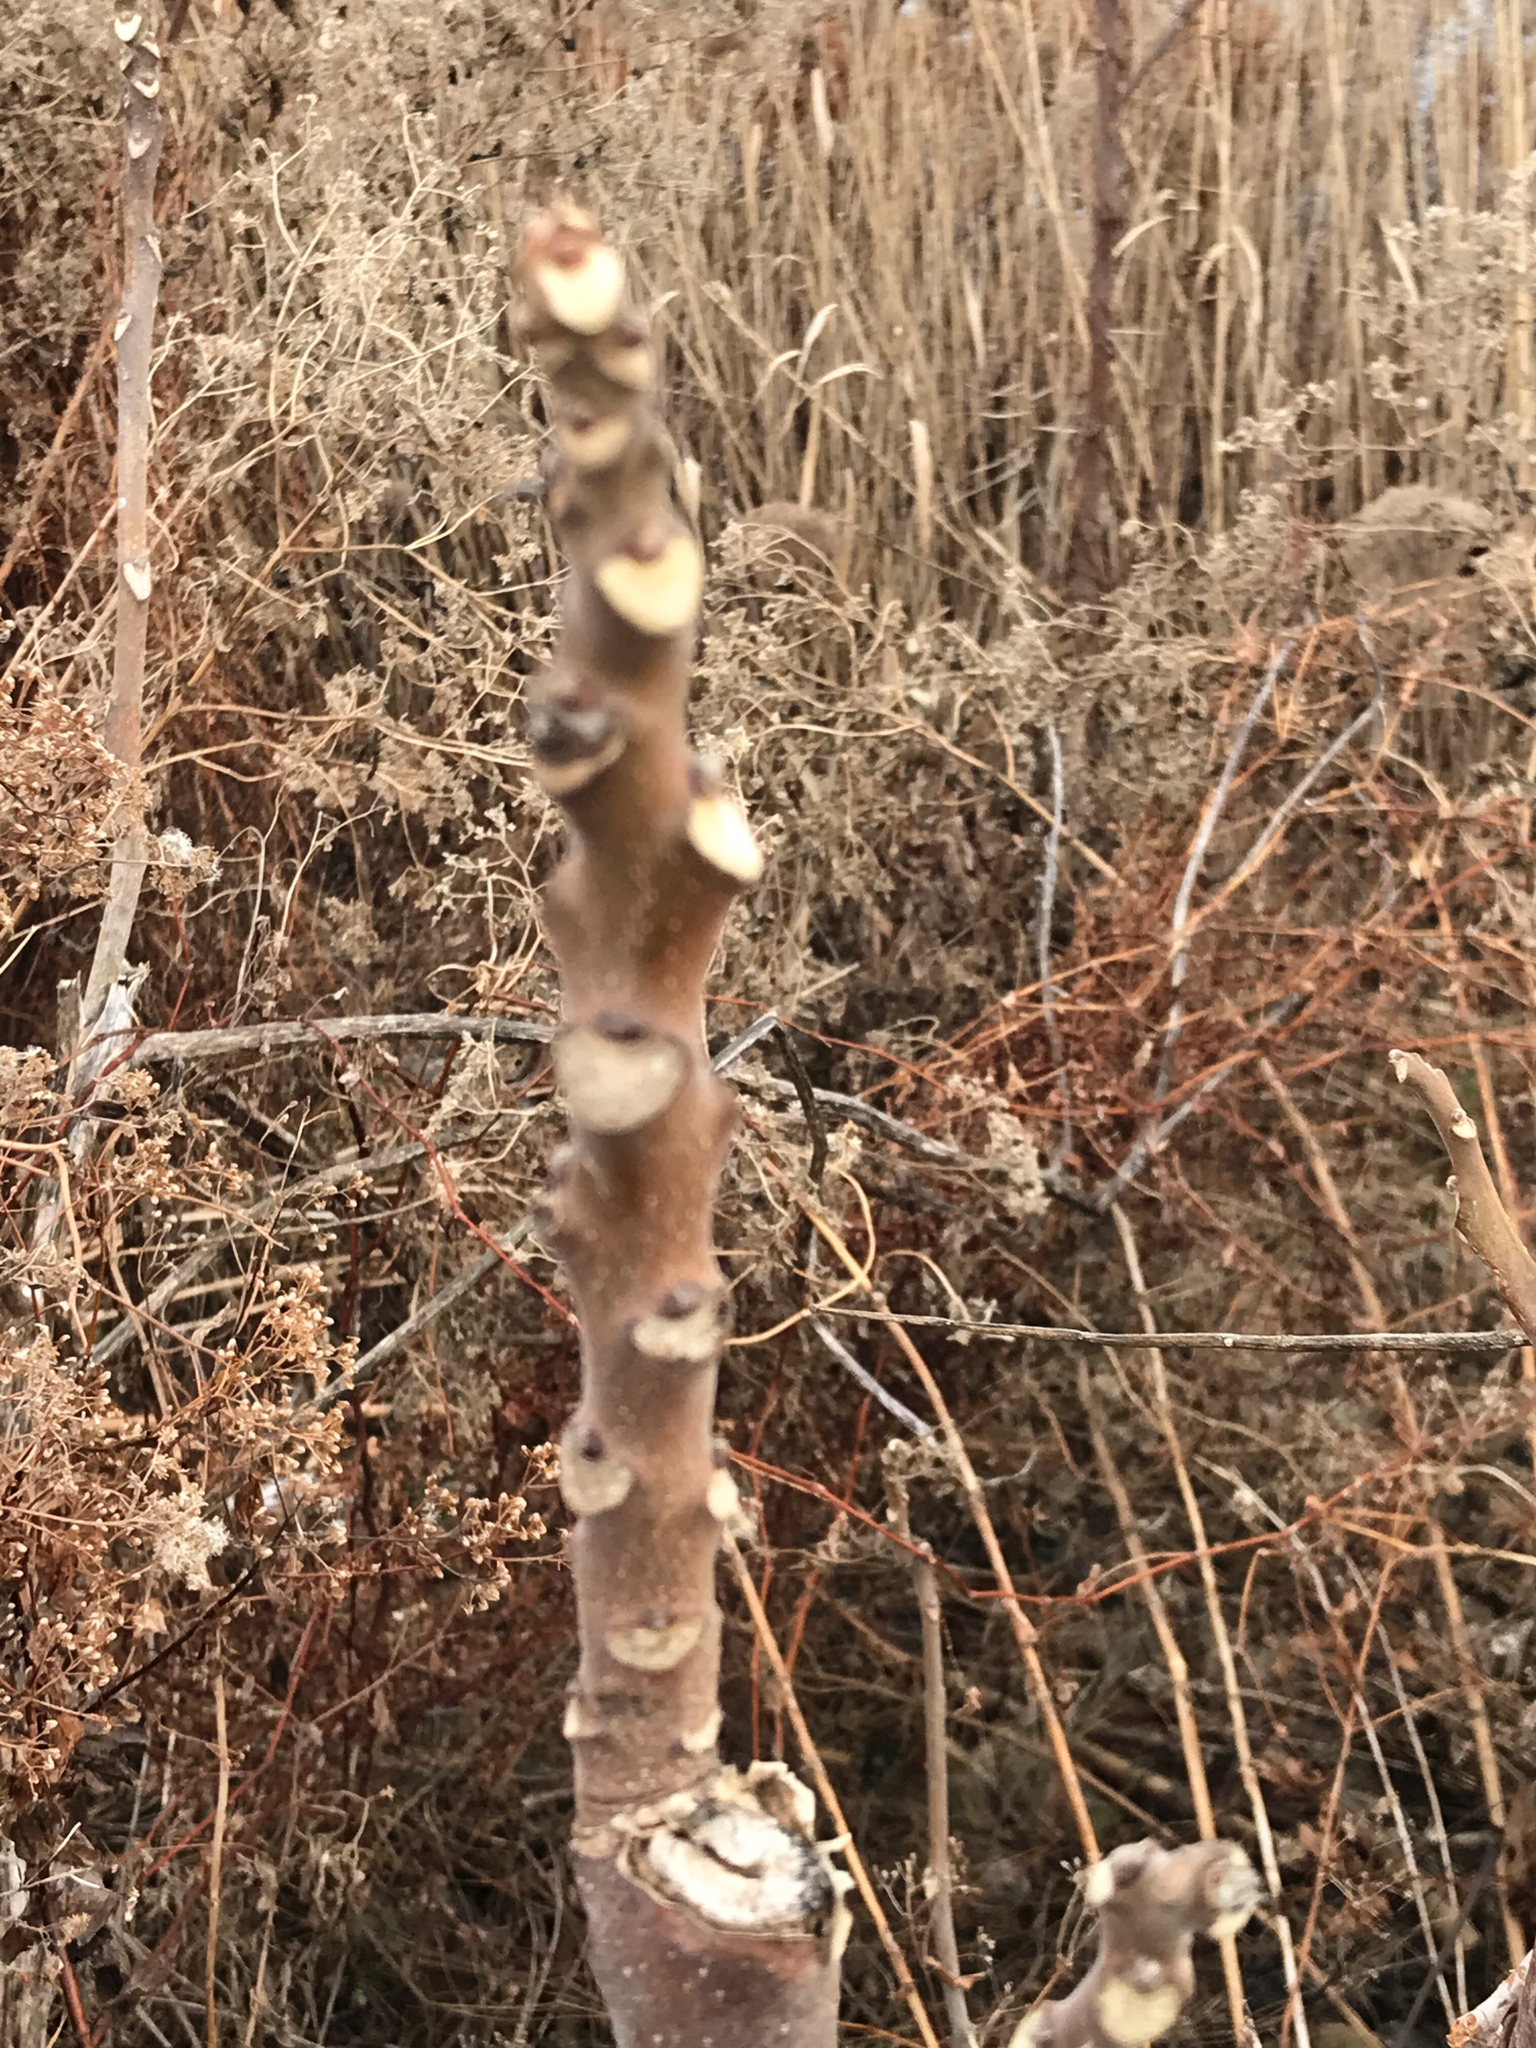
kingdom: Plantae
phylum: Tracheophyta
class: Magnoliopsida
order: Sapindales
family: Simaroubaceae
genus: Ailanthus
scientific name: Ailanthus altissima
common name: Tree-of-heaven
